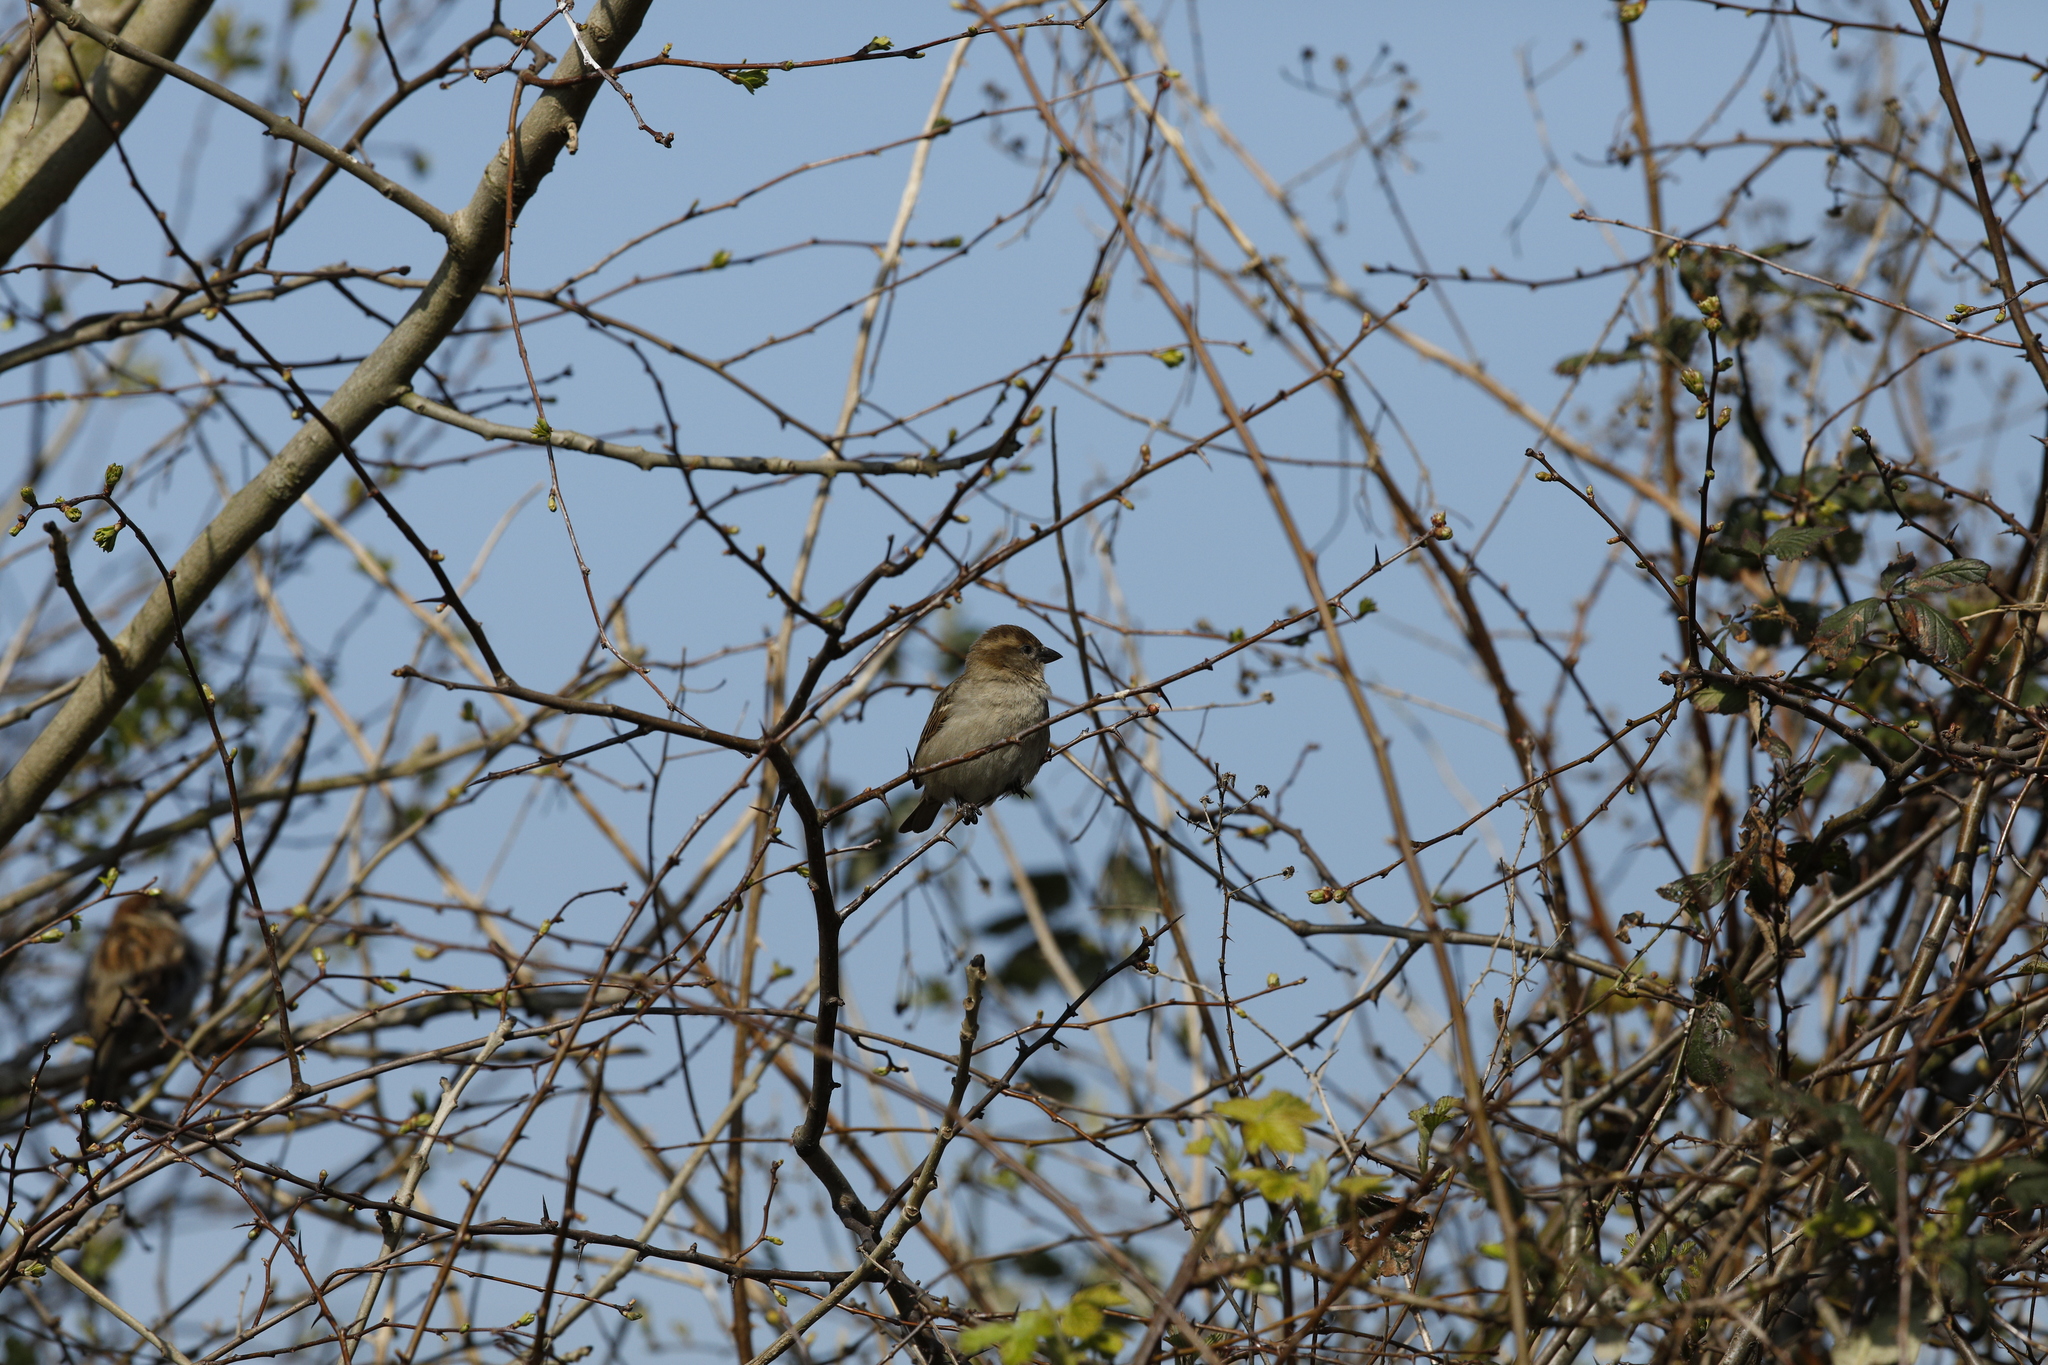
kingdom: Animalia
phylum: Chordata
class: Aves
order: Passeriformes
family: Passeridae
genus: Passer
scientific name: Passer domesticus
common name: House sparrow
